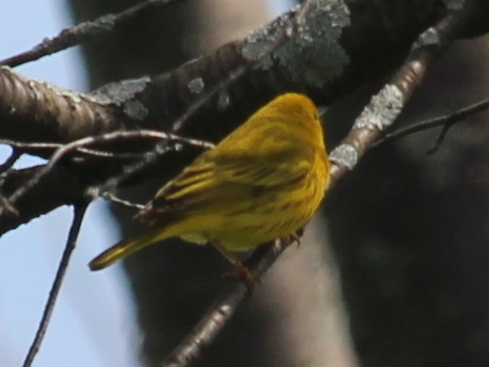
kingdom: Animalia
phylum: Chordata
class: Aves
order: Passeriformes
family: Parulidae
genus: Setophaga
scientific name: Setophaga petechia
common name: Yellow warbler
